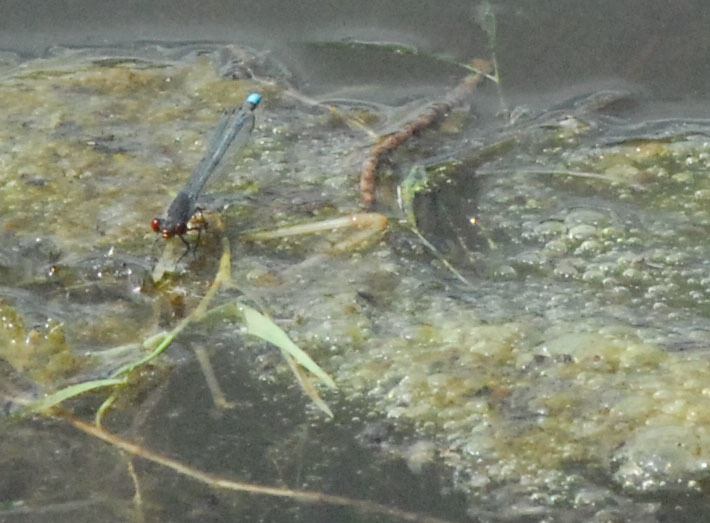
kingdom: Animalia
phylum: Arthropoda
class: Insecta
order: Odonata
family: Coenagrionidae
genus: Erythromma
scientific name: Erythromma najas
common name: Red-eyed damselfly
